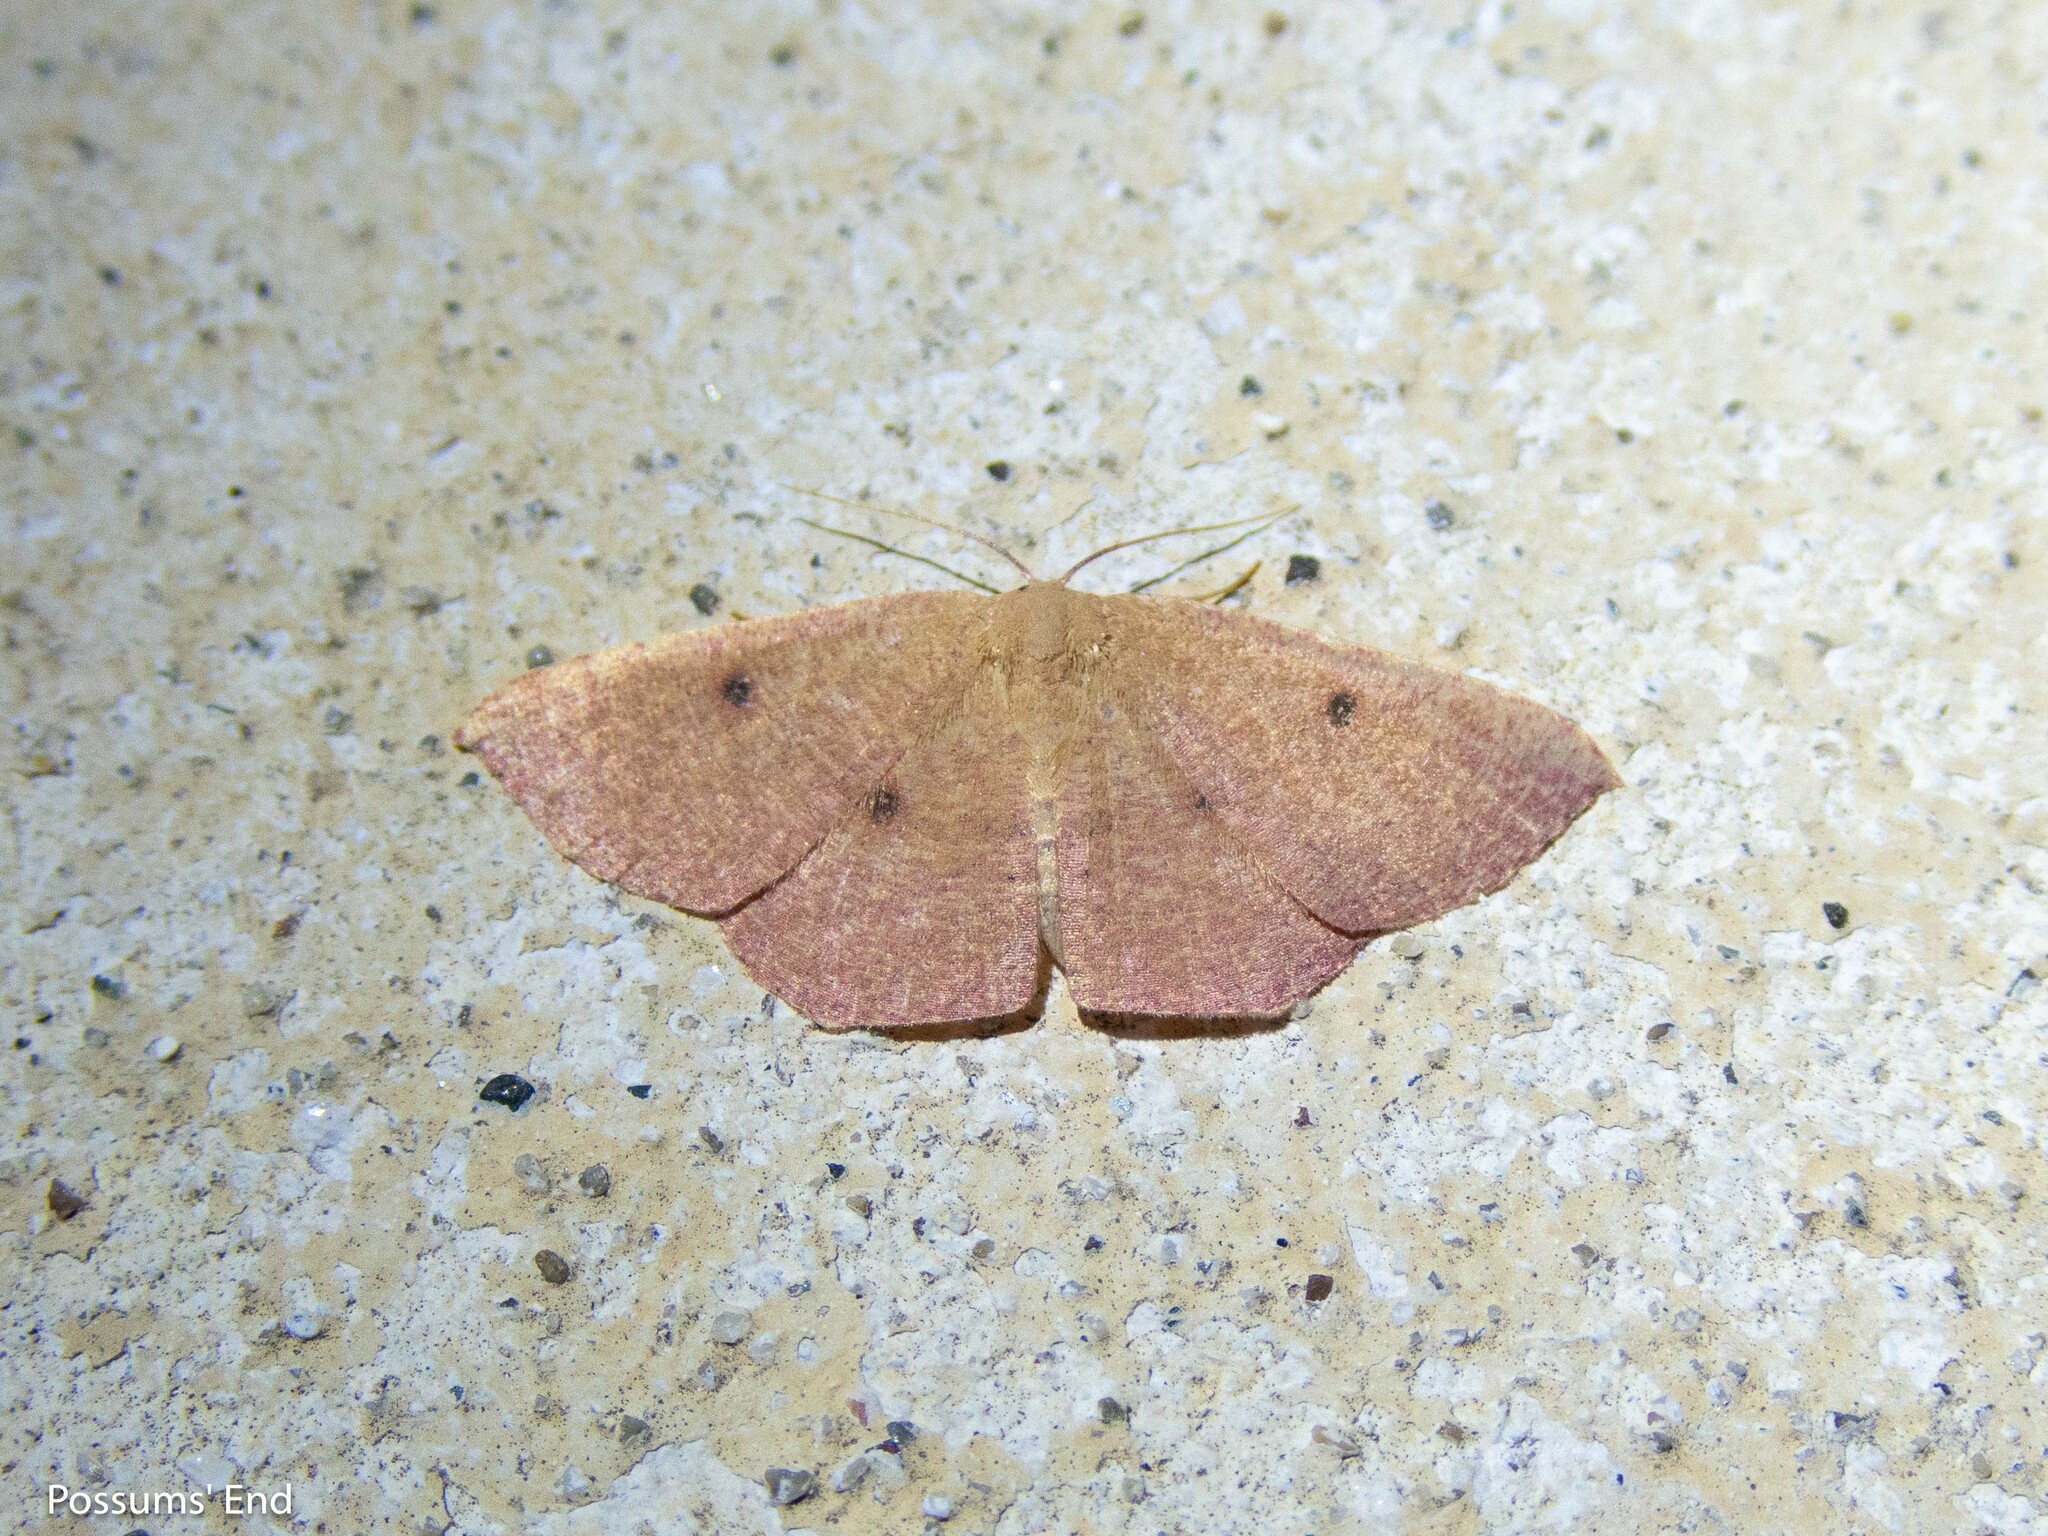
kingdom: Animalia
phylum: Arthropoda
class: Insecta
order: Lepidoptera
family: Geometridae
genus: Cyclophora
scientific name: Cyclophora puppillaria
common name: Blair's mocha
